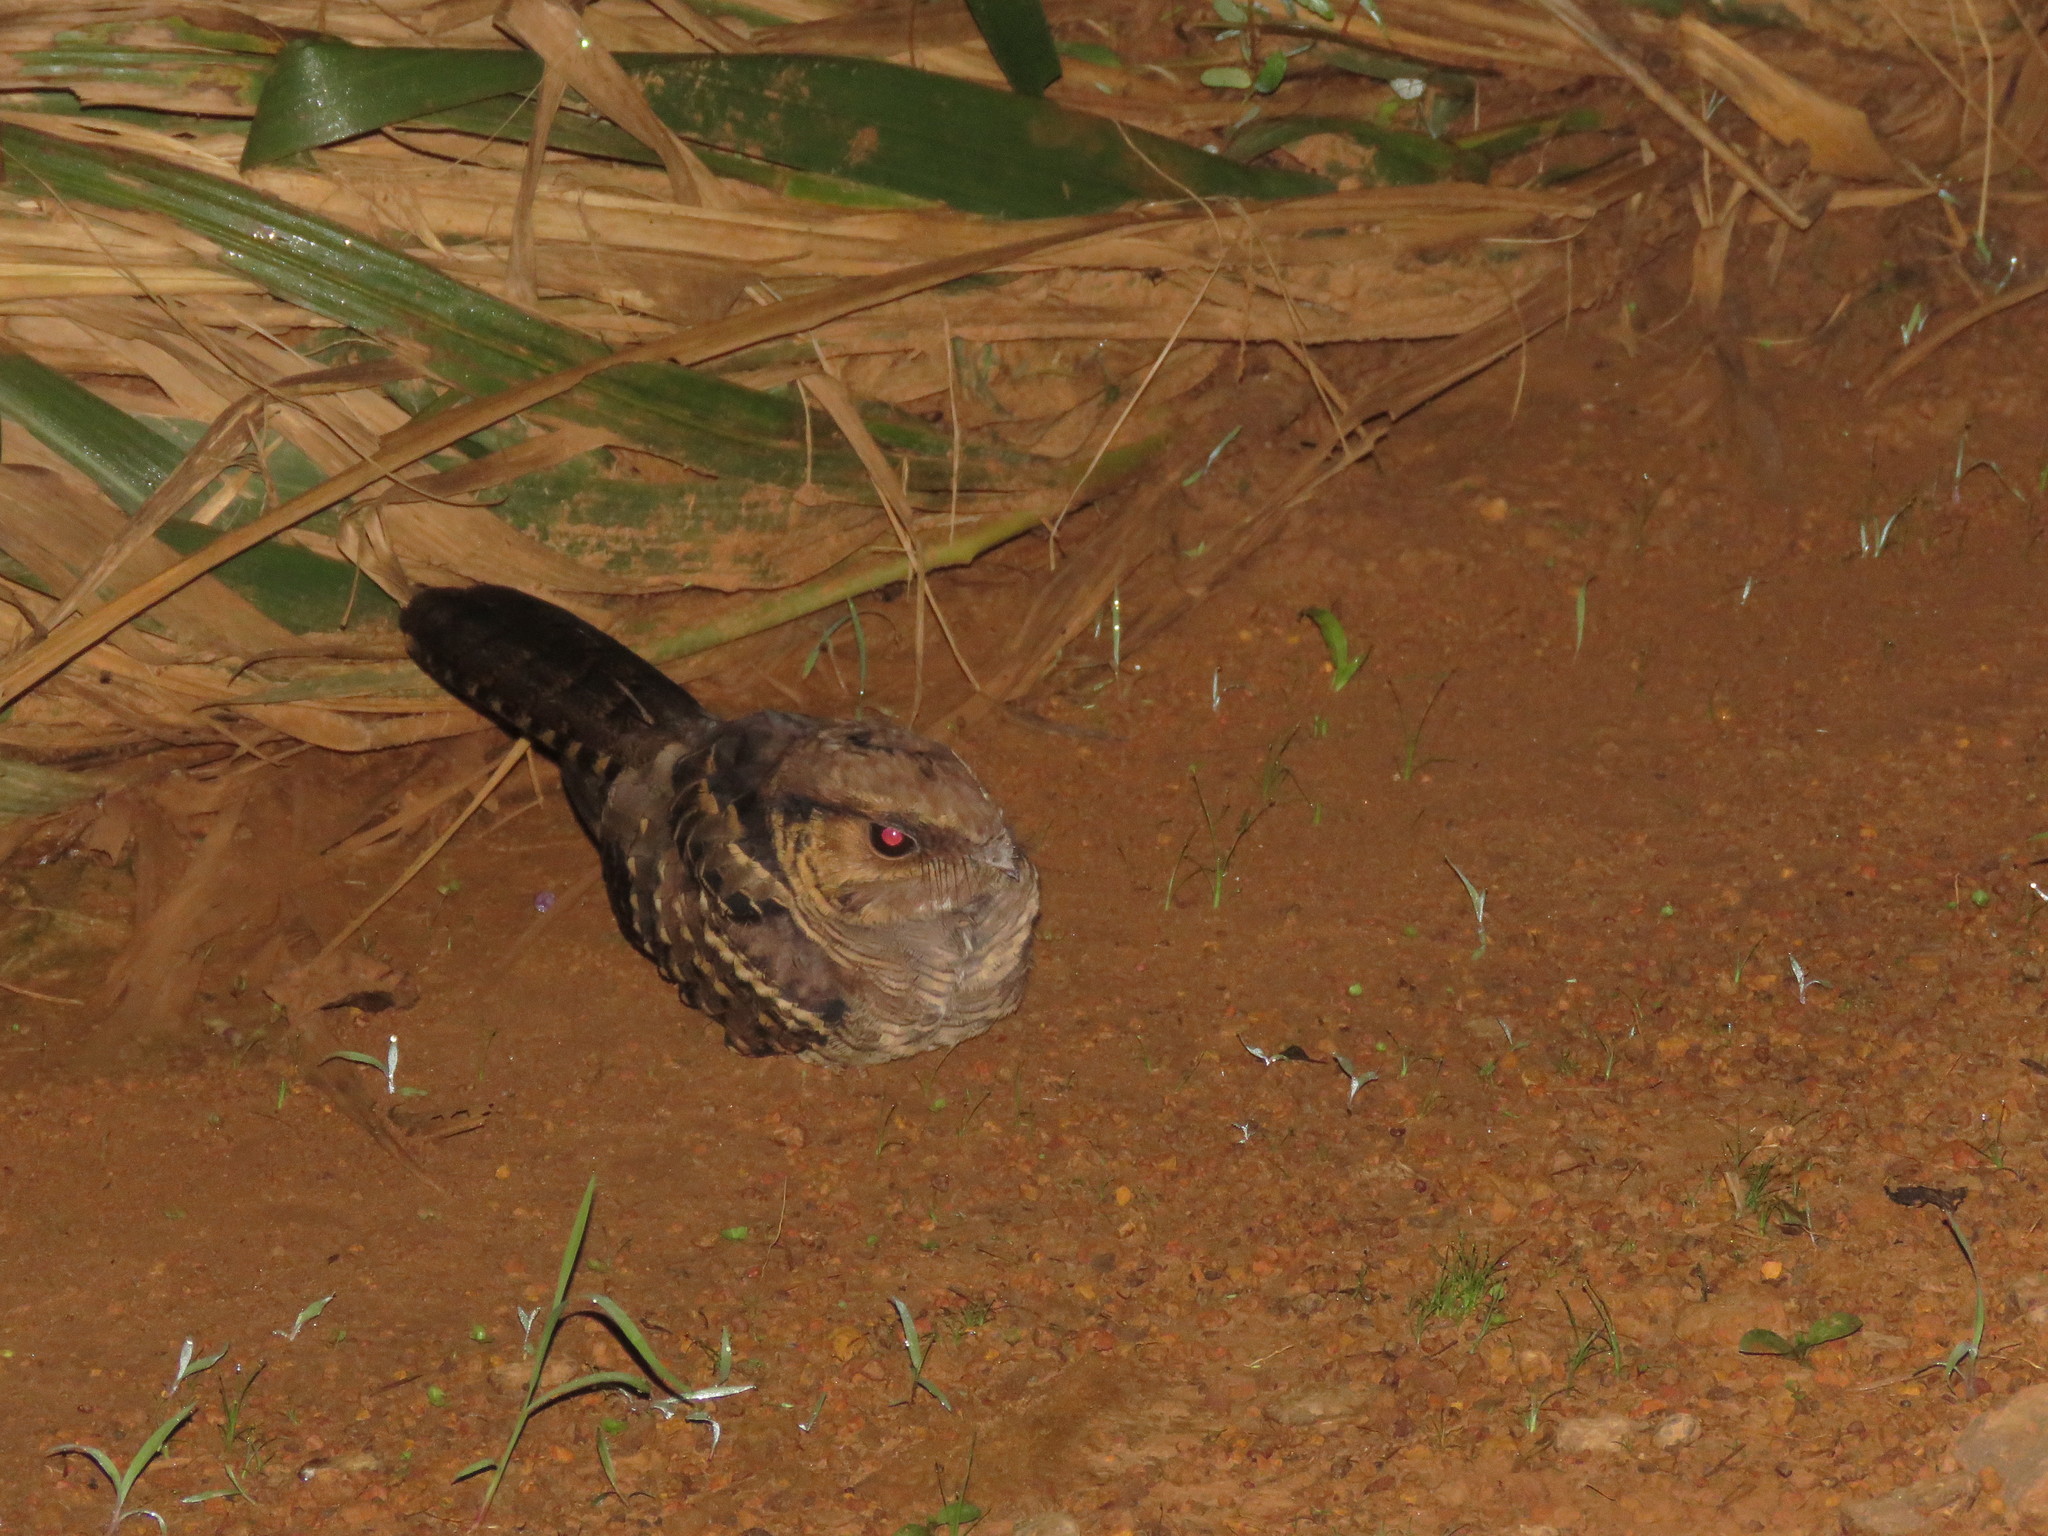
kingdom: Animalia
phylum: Chordata
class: Aves
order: Caprimulgiformes
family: Caprimulgidae
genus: Nyctidromus
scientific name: Nyctidromus albicollis
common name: Pauraque
